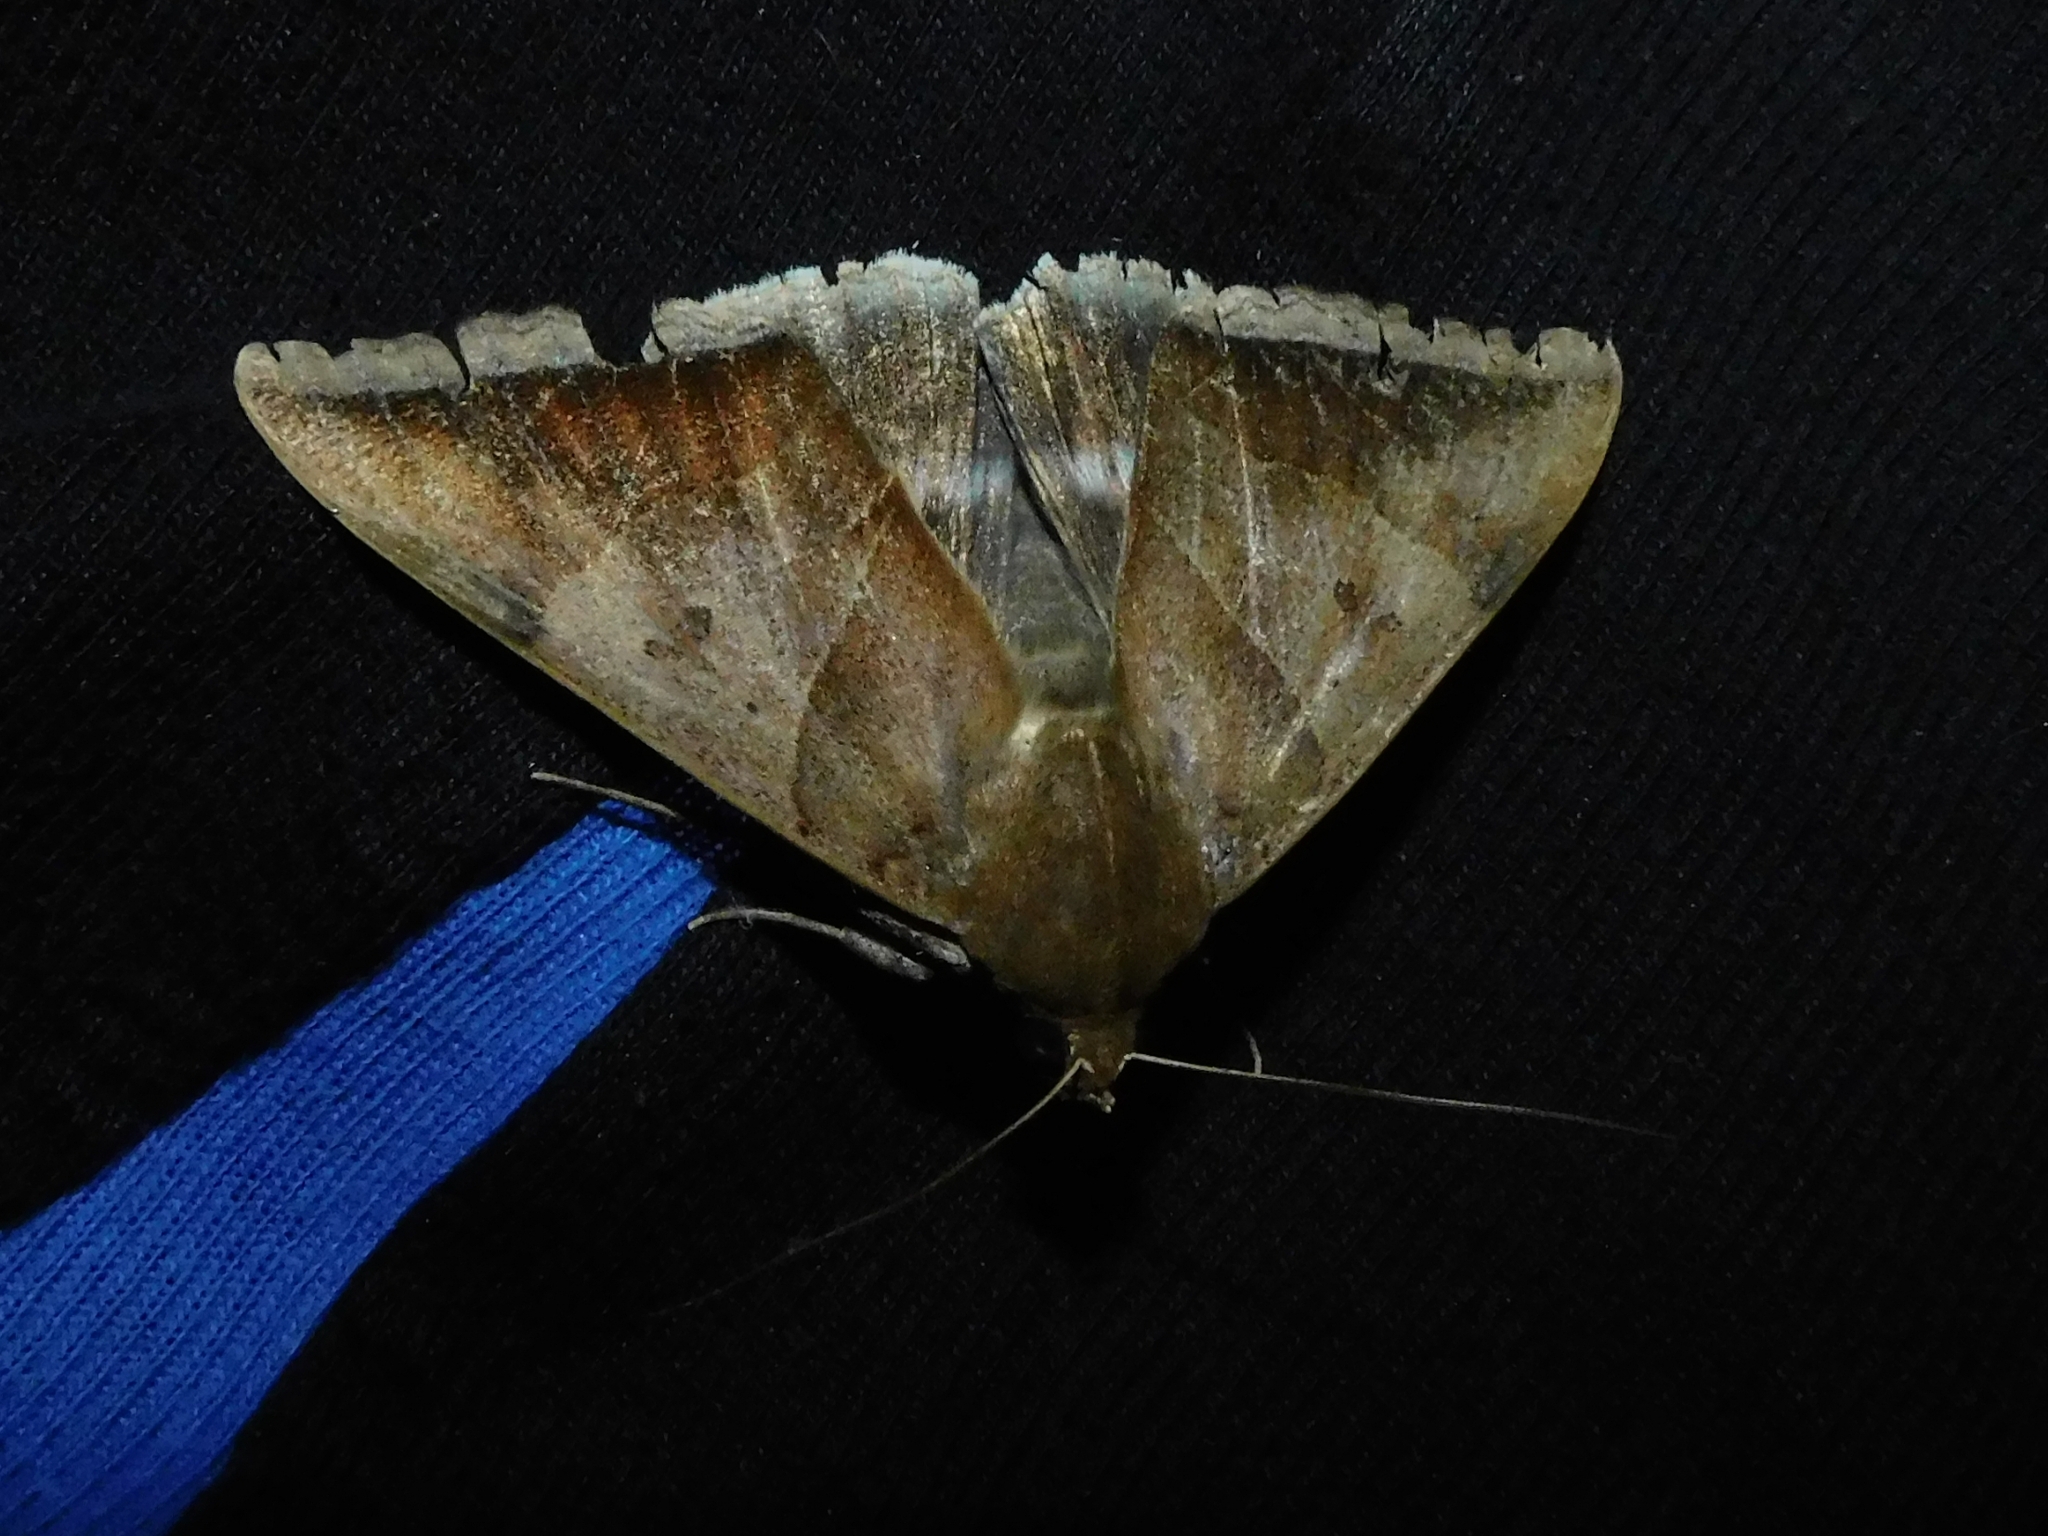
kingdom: Animalia
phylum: Arthropoda
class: Insecta
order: Lepidoptera
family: Erebidae
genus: Artena
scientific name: Artena dotata
